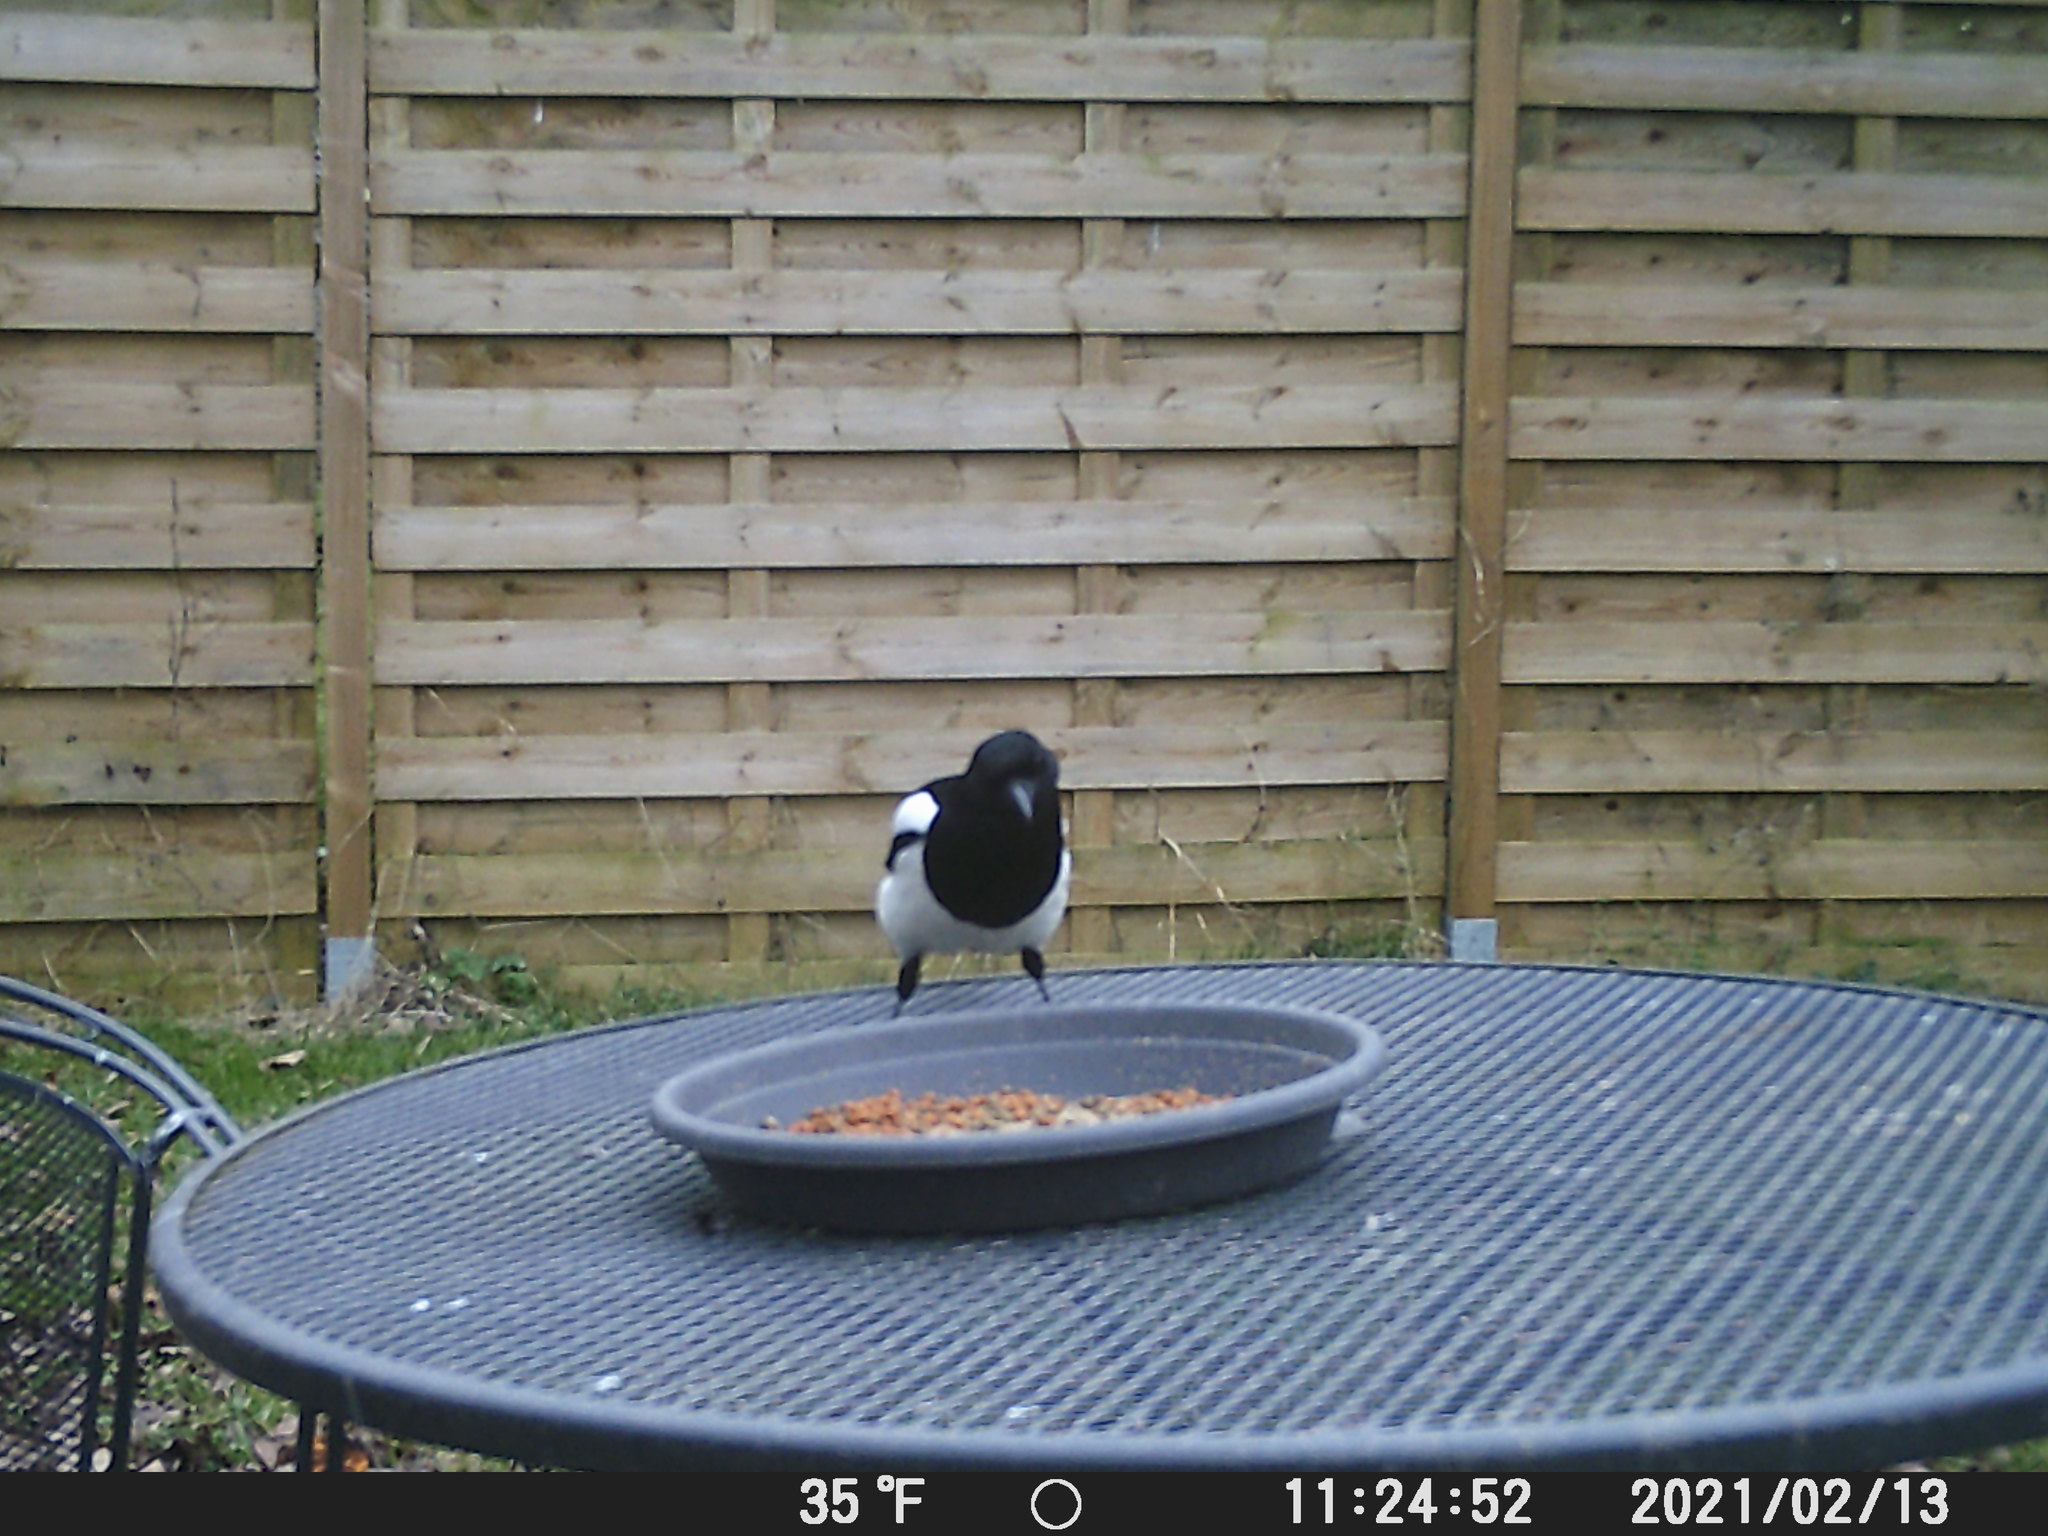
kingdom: Animalia
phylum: Chordata
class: Aves
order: Passeriformes
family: Corvidae
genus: Pica
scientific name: Pica pica
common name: Eurasian magpie
